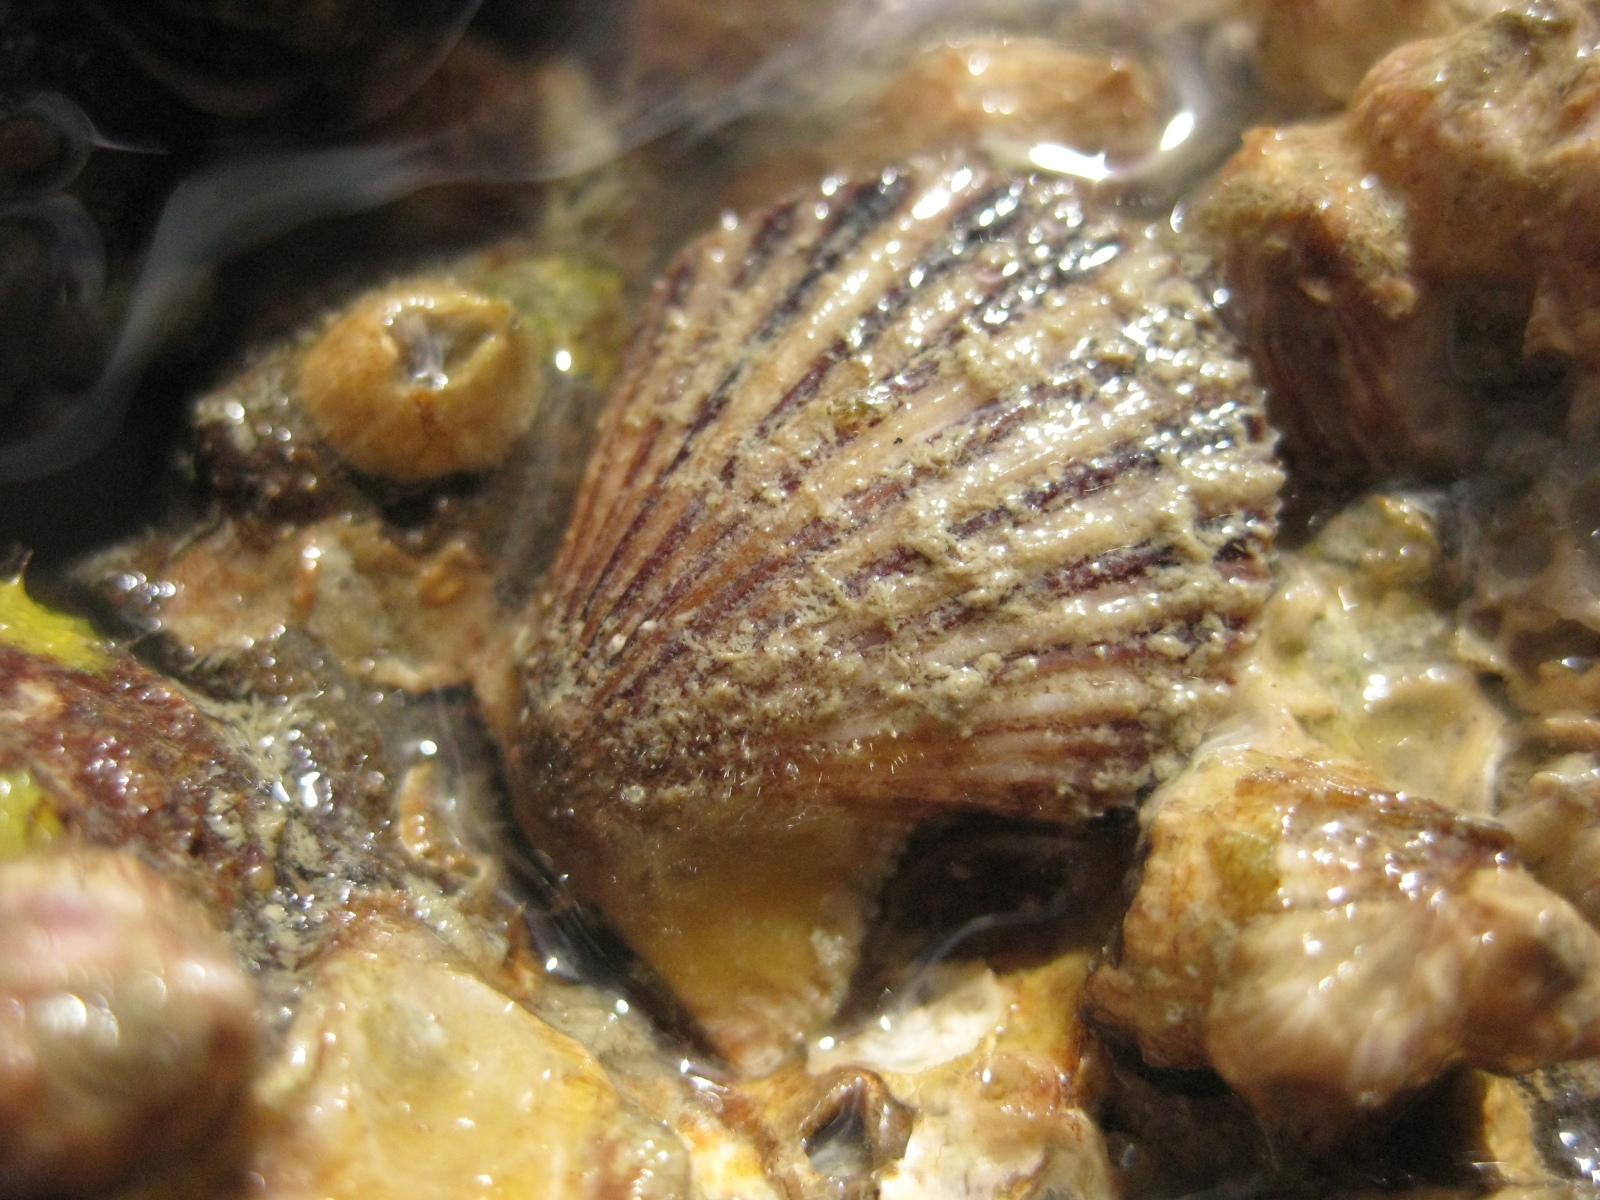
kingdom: Animalia
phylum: Mollusca
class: Bivalvia
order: Pectinida
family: Pectinidae
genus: Talochlamys
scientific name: Talochlamys zelandiae
